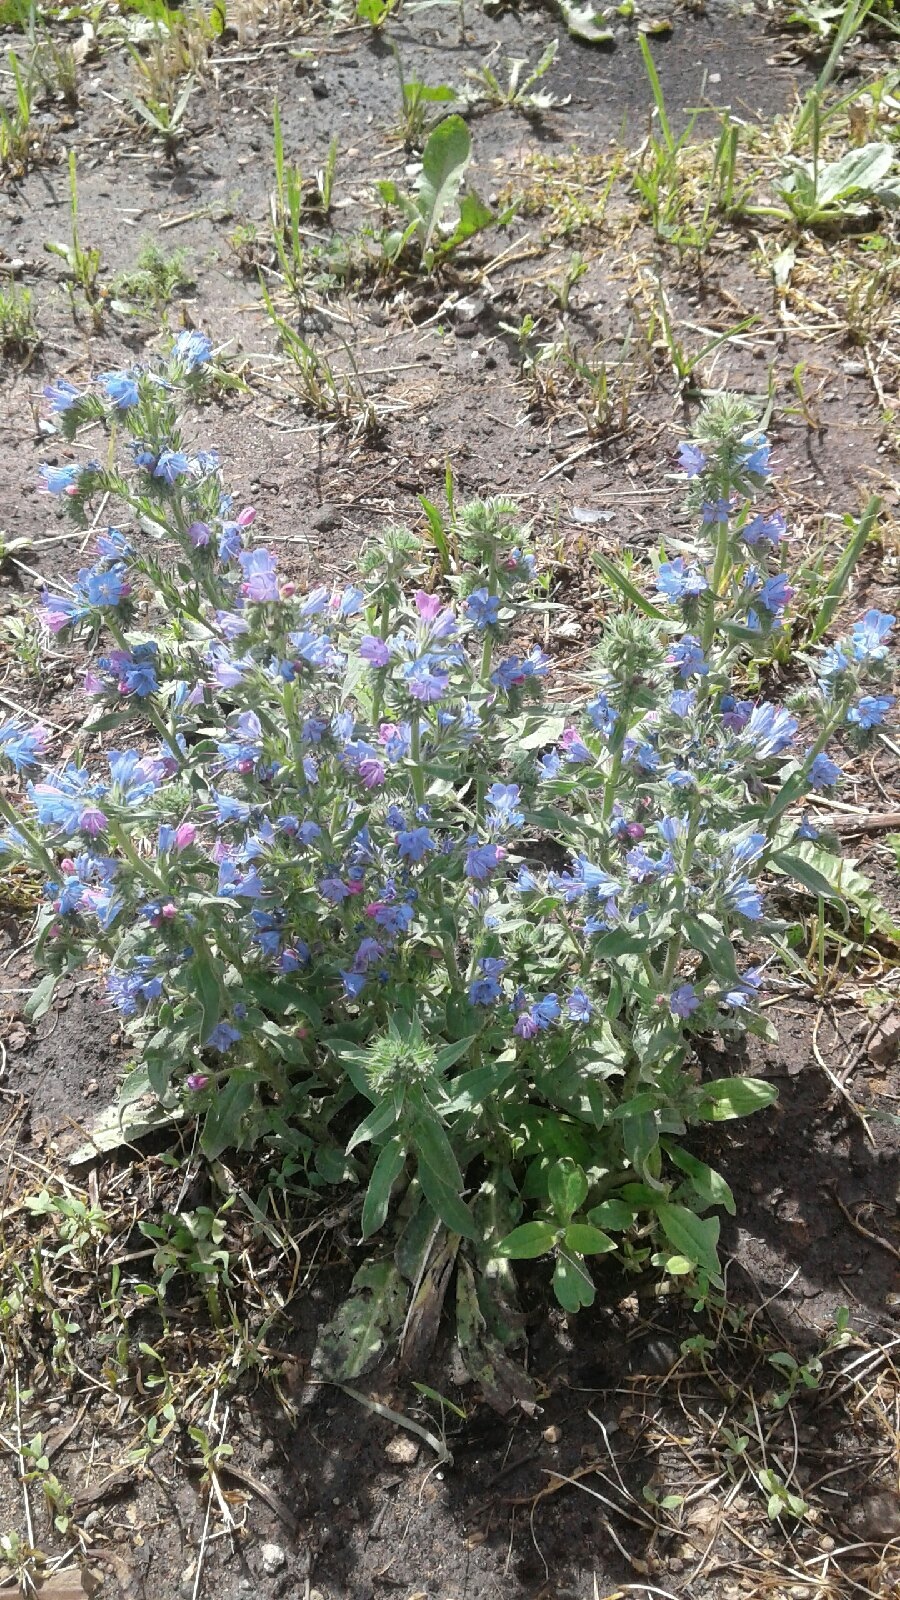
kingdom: Plantae
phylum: Tracheophyta
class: Magnoliopsida
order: Boraginales
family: Boraginaceae
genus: Echium
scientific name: Echium vulgare
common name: Common viper's bugloss
